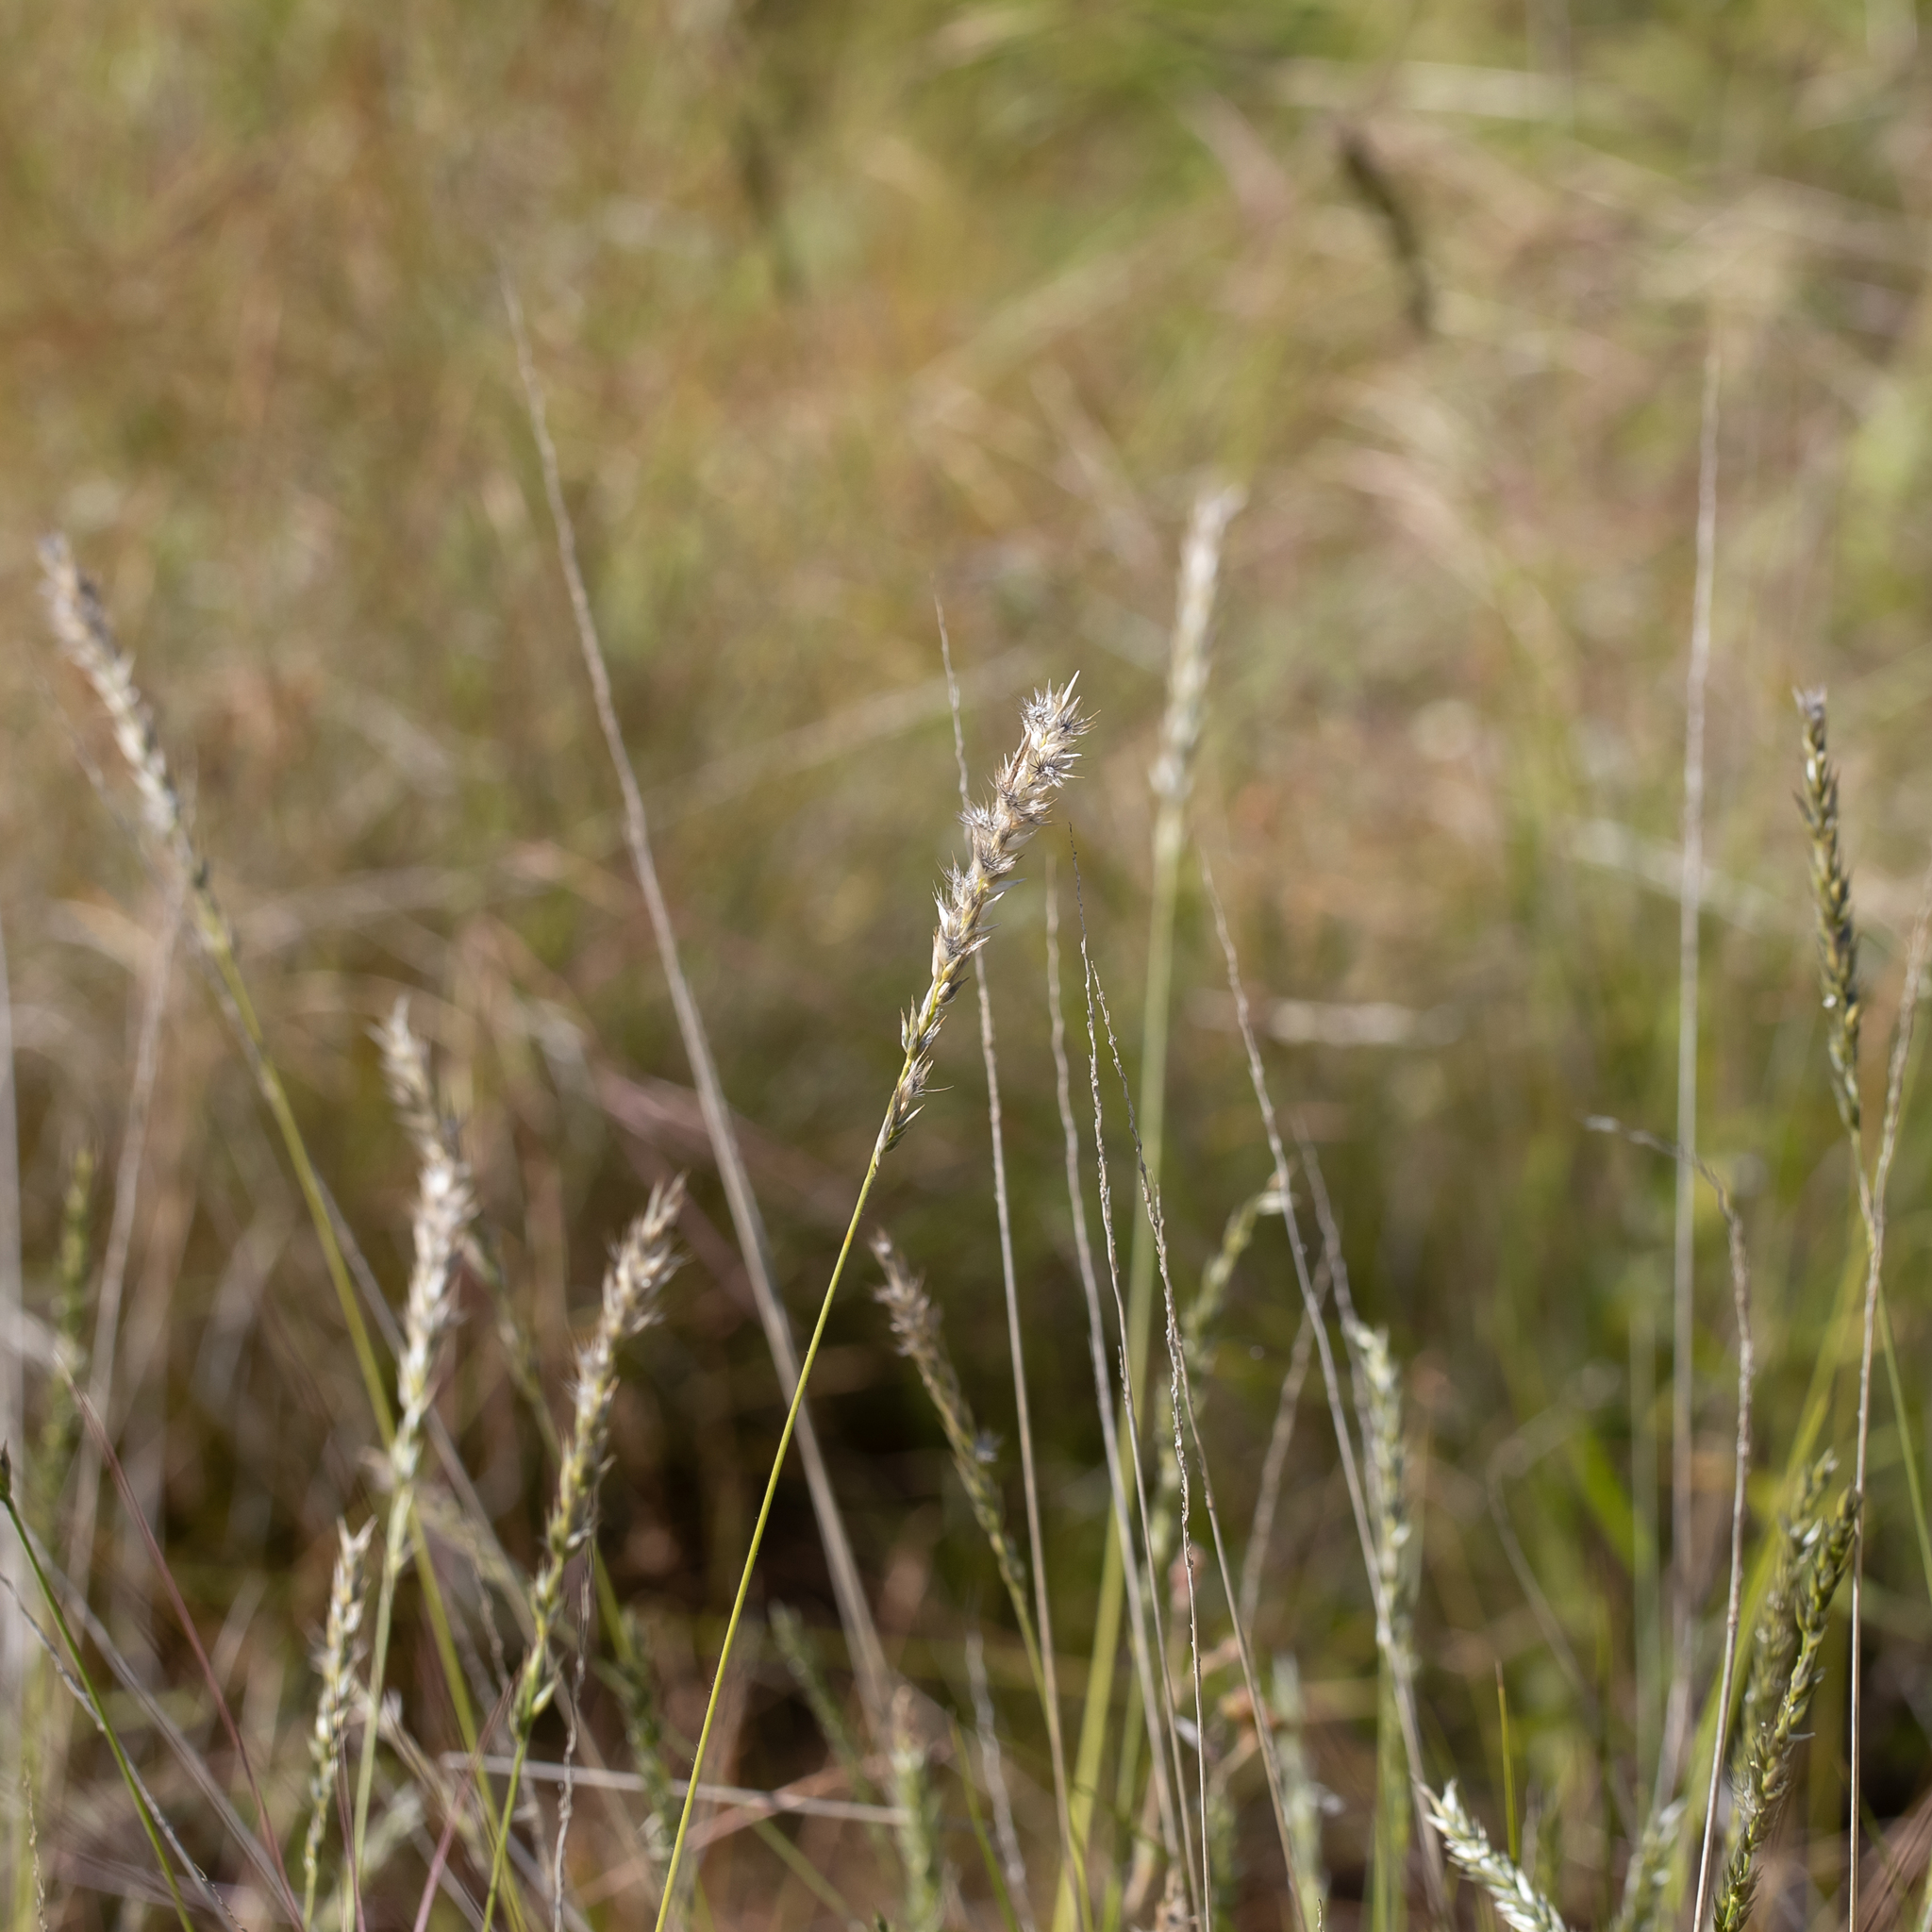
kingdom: Plantae
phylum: Tracheophyta
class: Liliopsida
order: Poales
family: Poaceae
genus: Enneapogon
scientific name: Enneapogon polyphyllus
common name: Leafy nineawn
